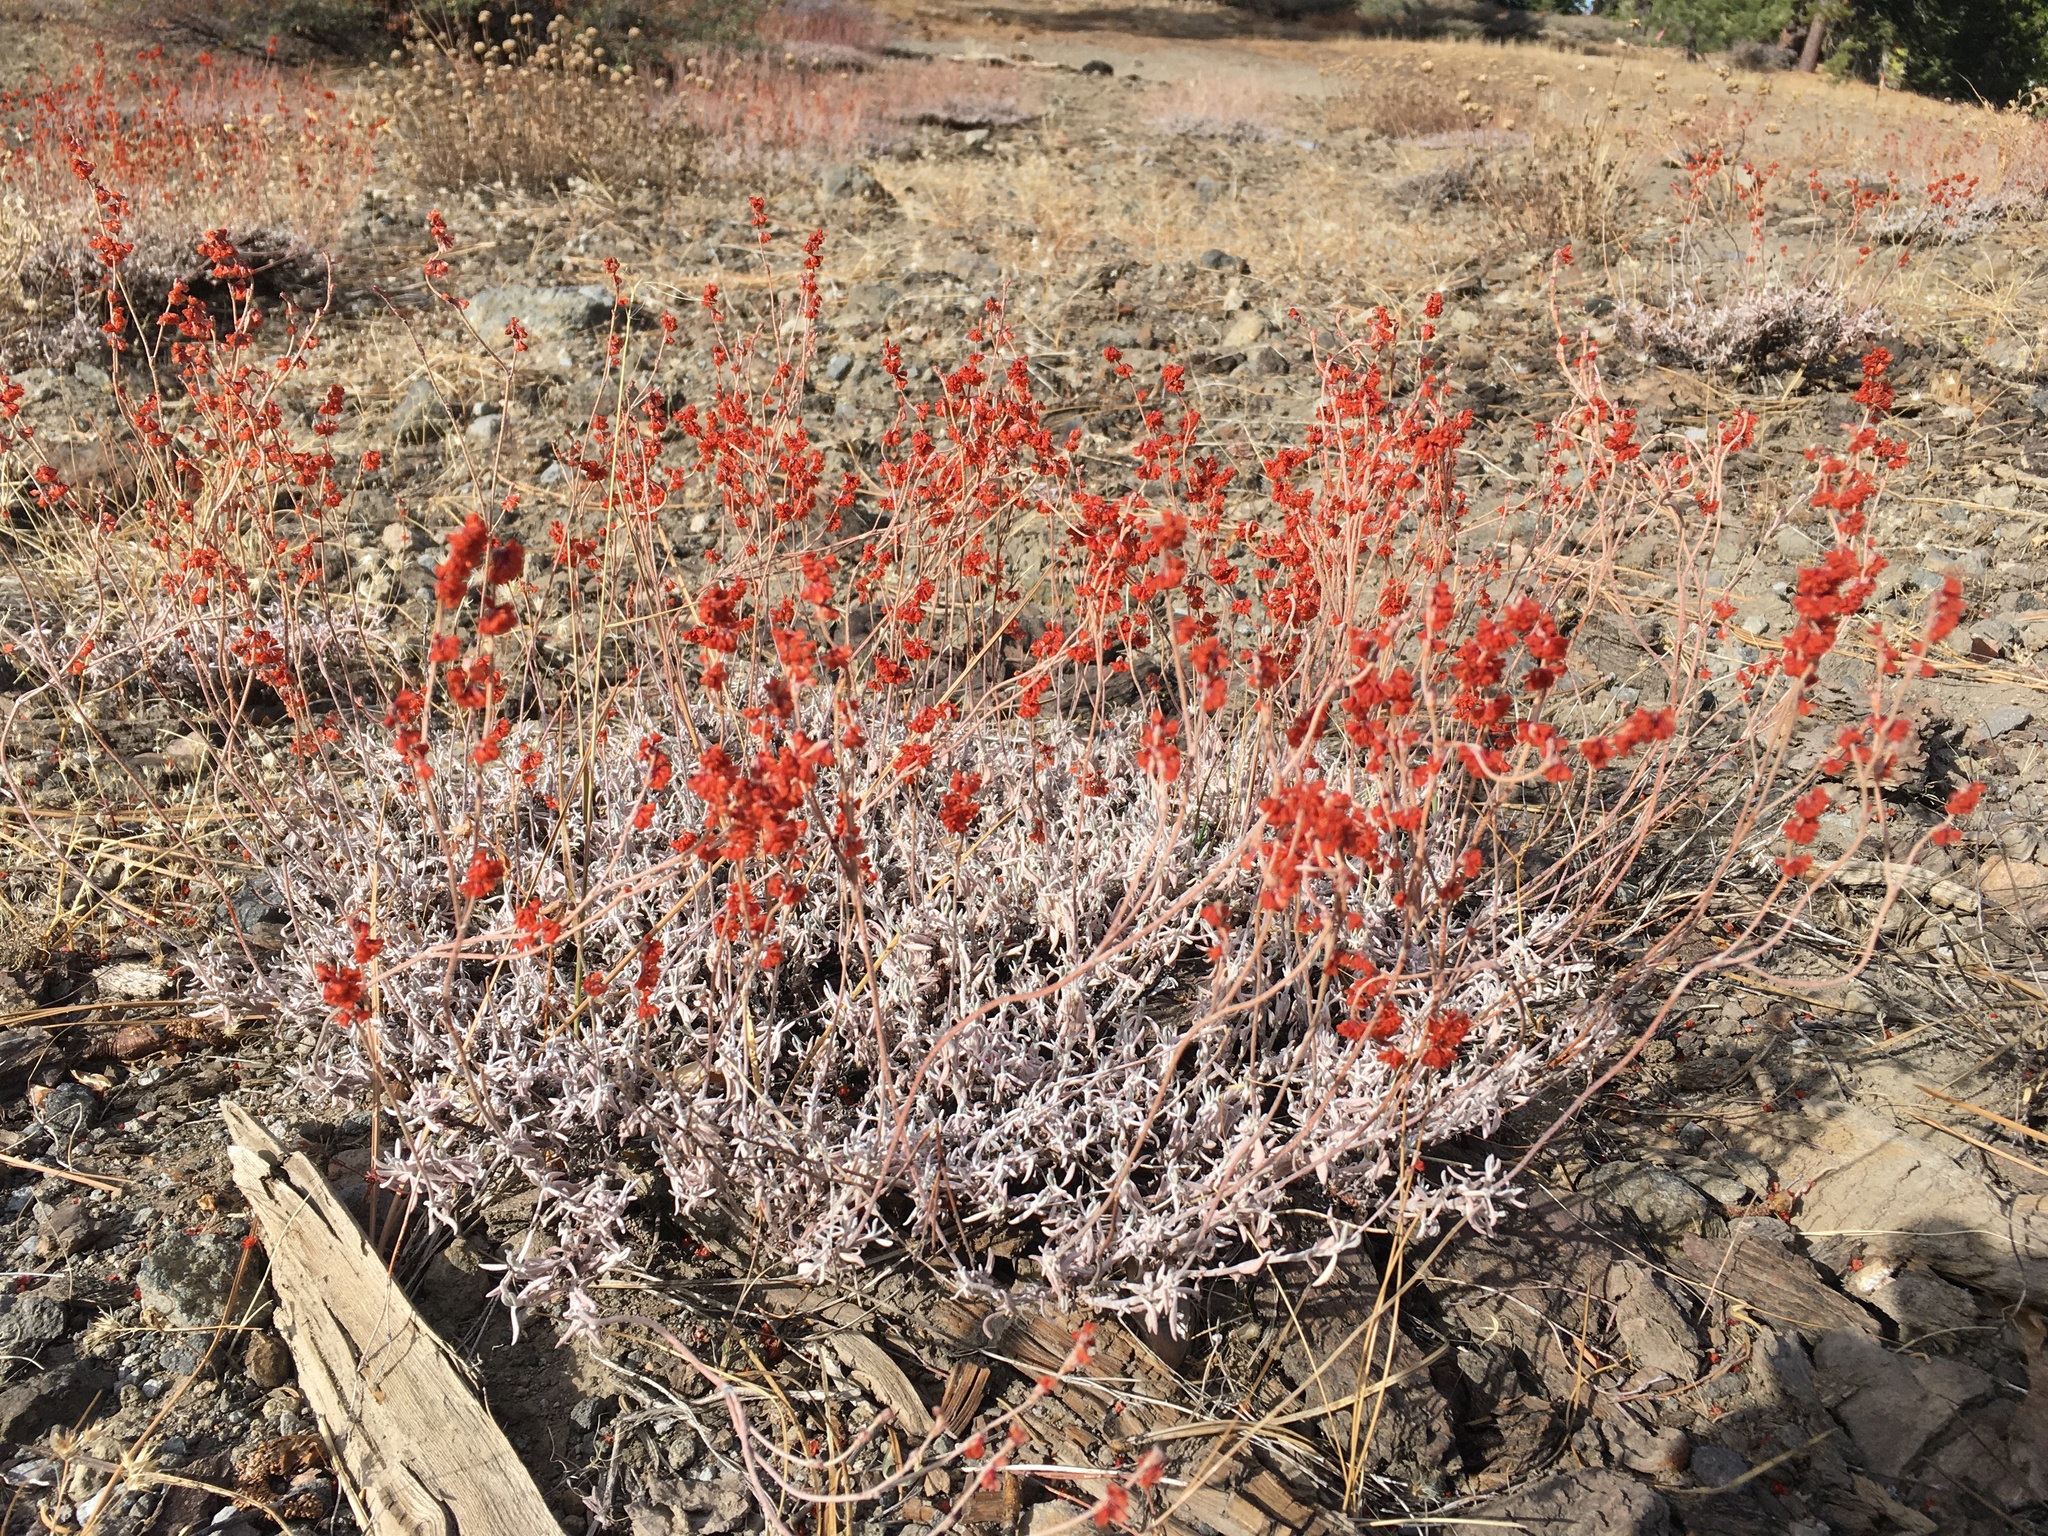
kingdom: Plantae
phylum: Tracheophyta
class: Magnoliopsida
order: Caryophyllales
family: Polygonaceae
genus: Eriogonum
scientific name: Eriogonum wrightii
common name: Bastard-sage
